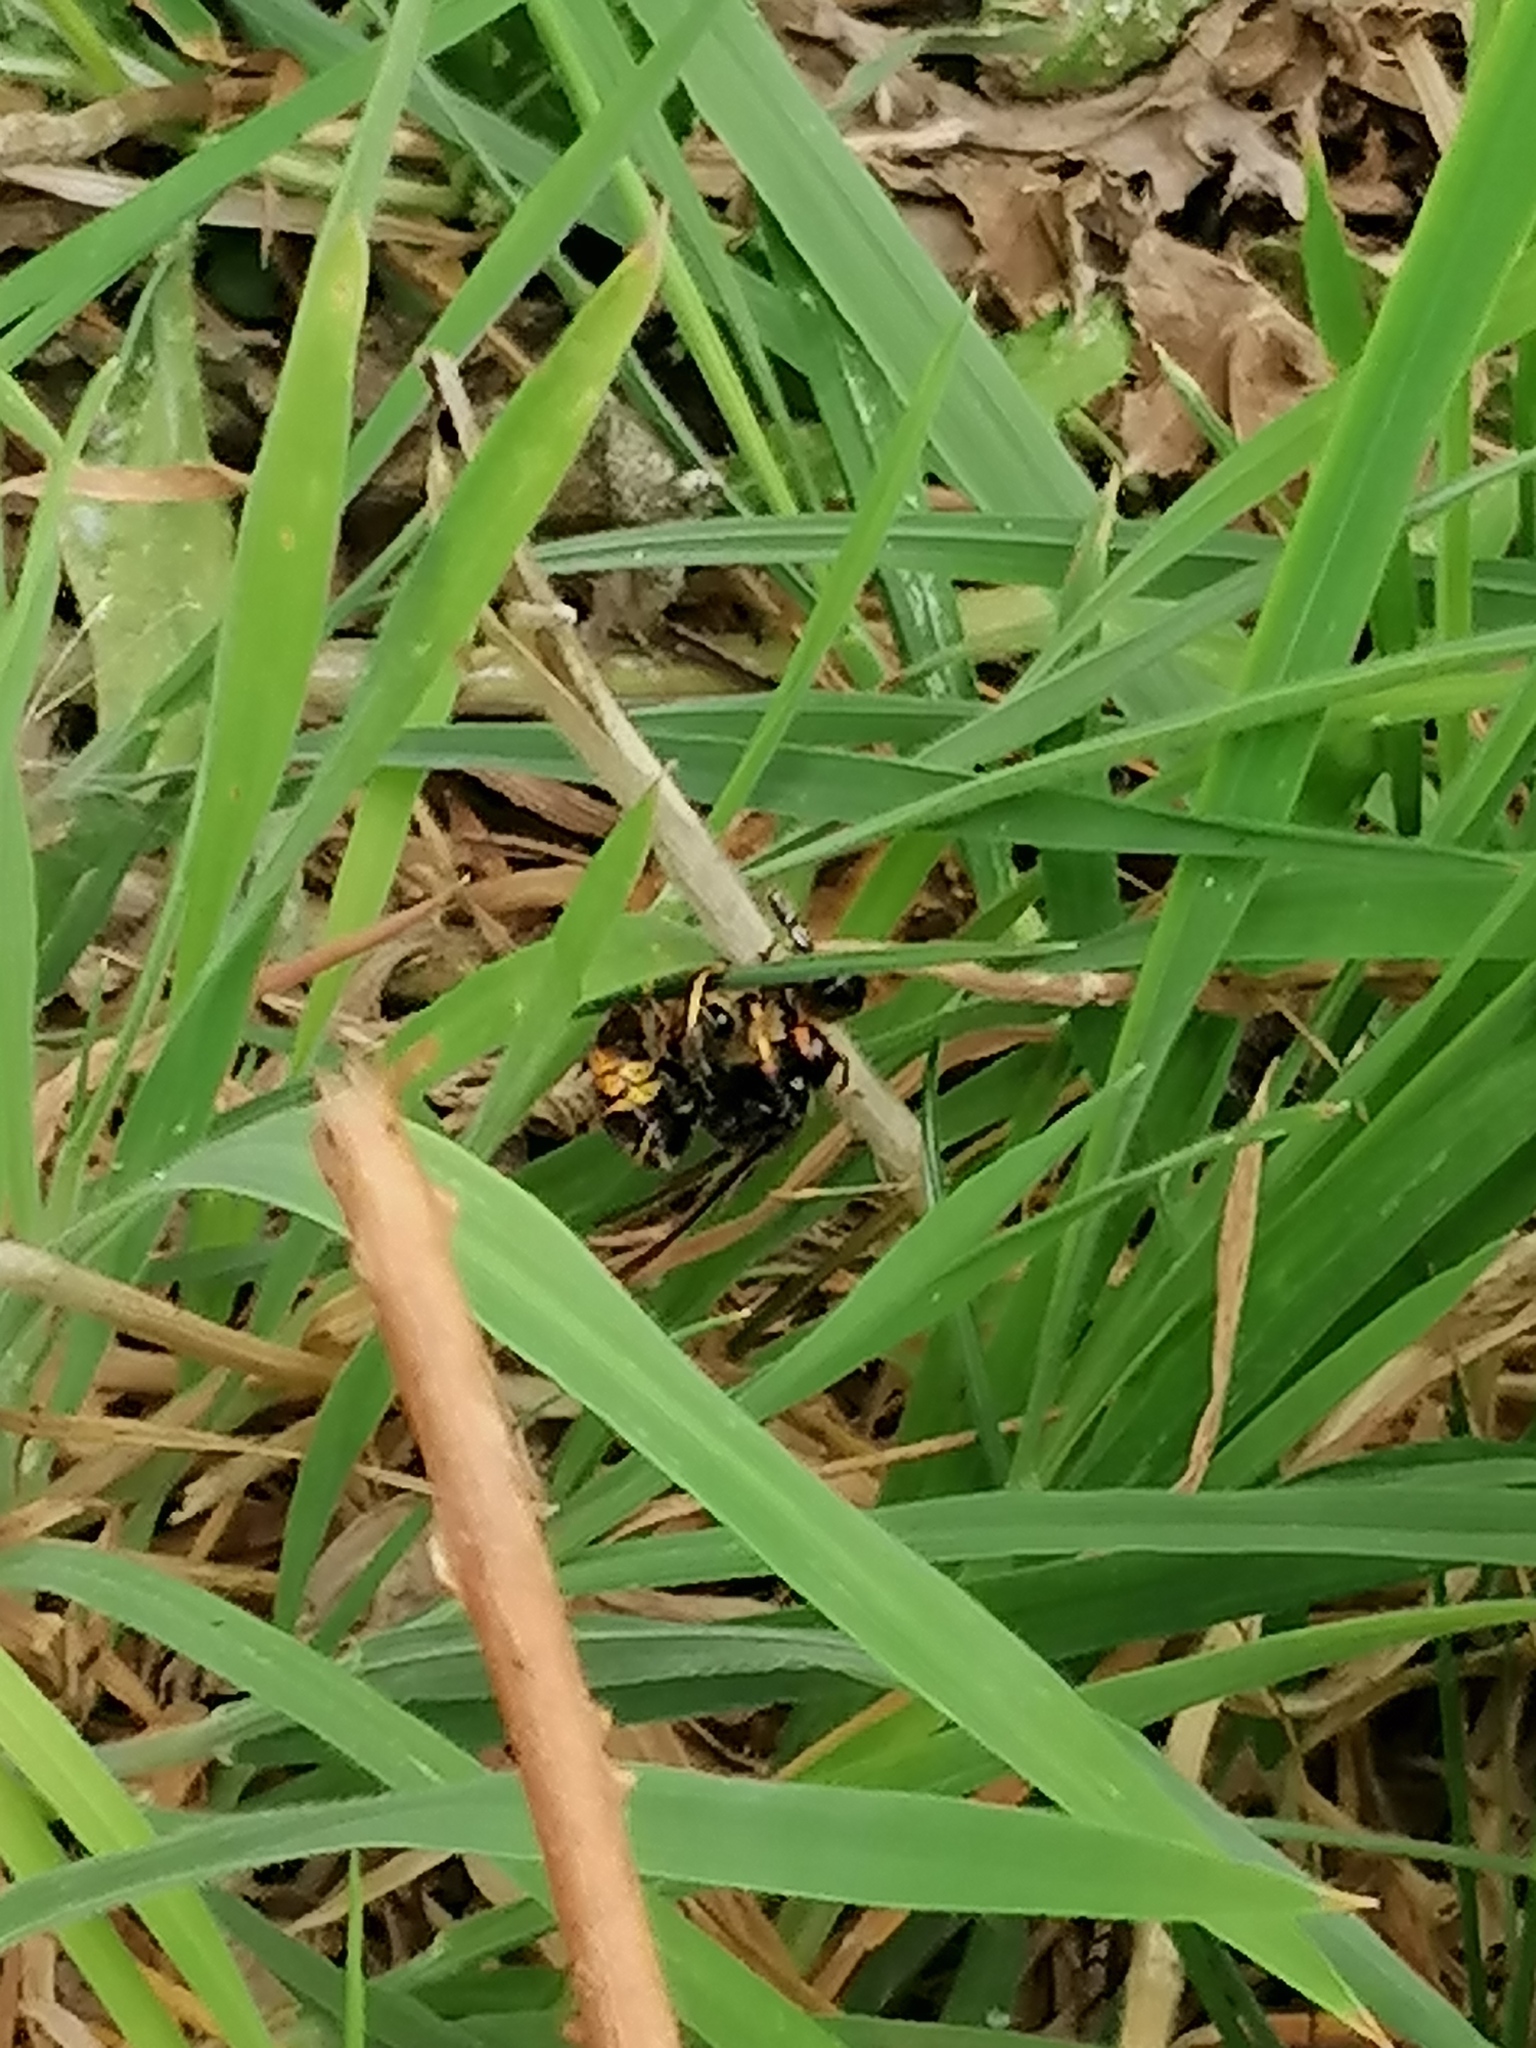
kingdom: Animalia
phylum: Arthropoda
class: Insecta
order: Hymenoptera
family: Vespidae
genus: Vespa
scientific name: Vespa velutina
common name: Asian hornet
